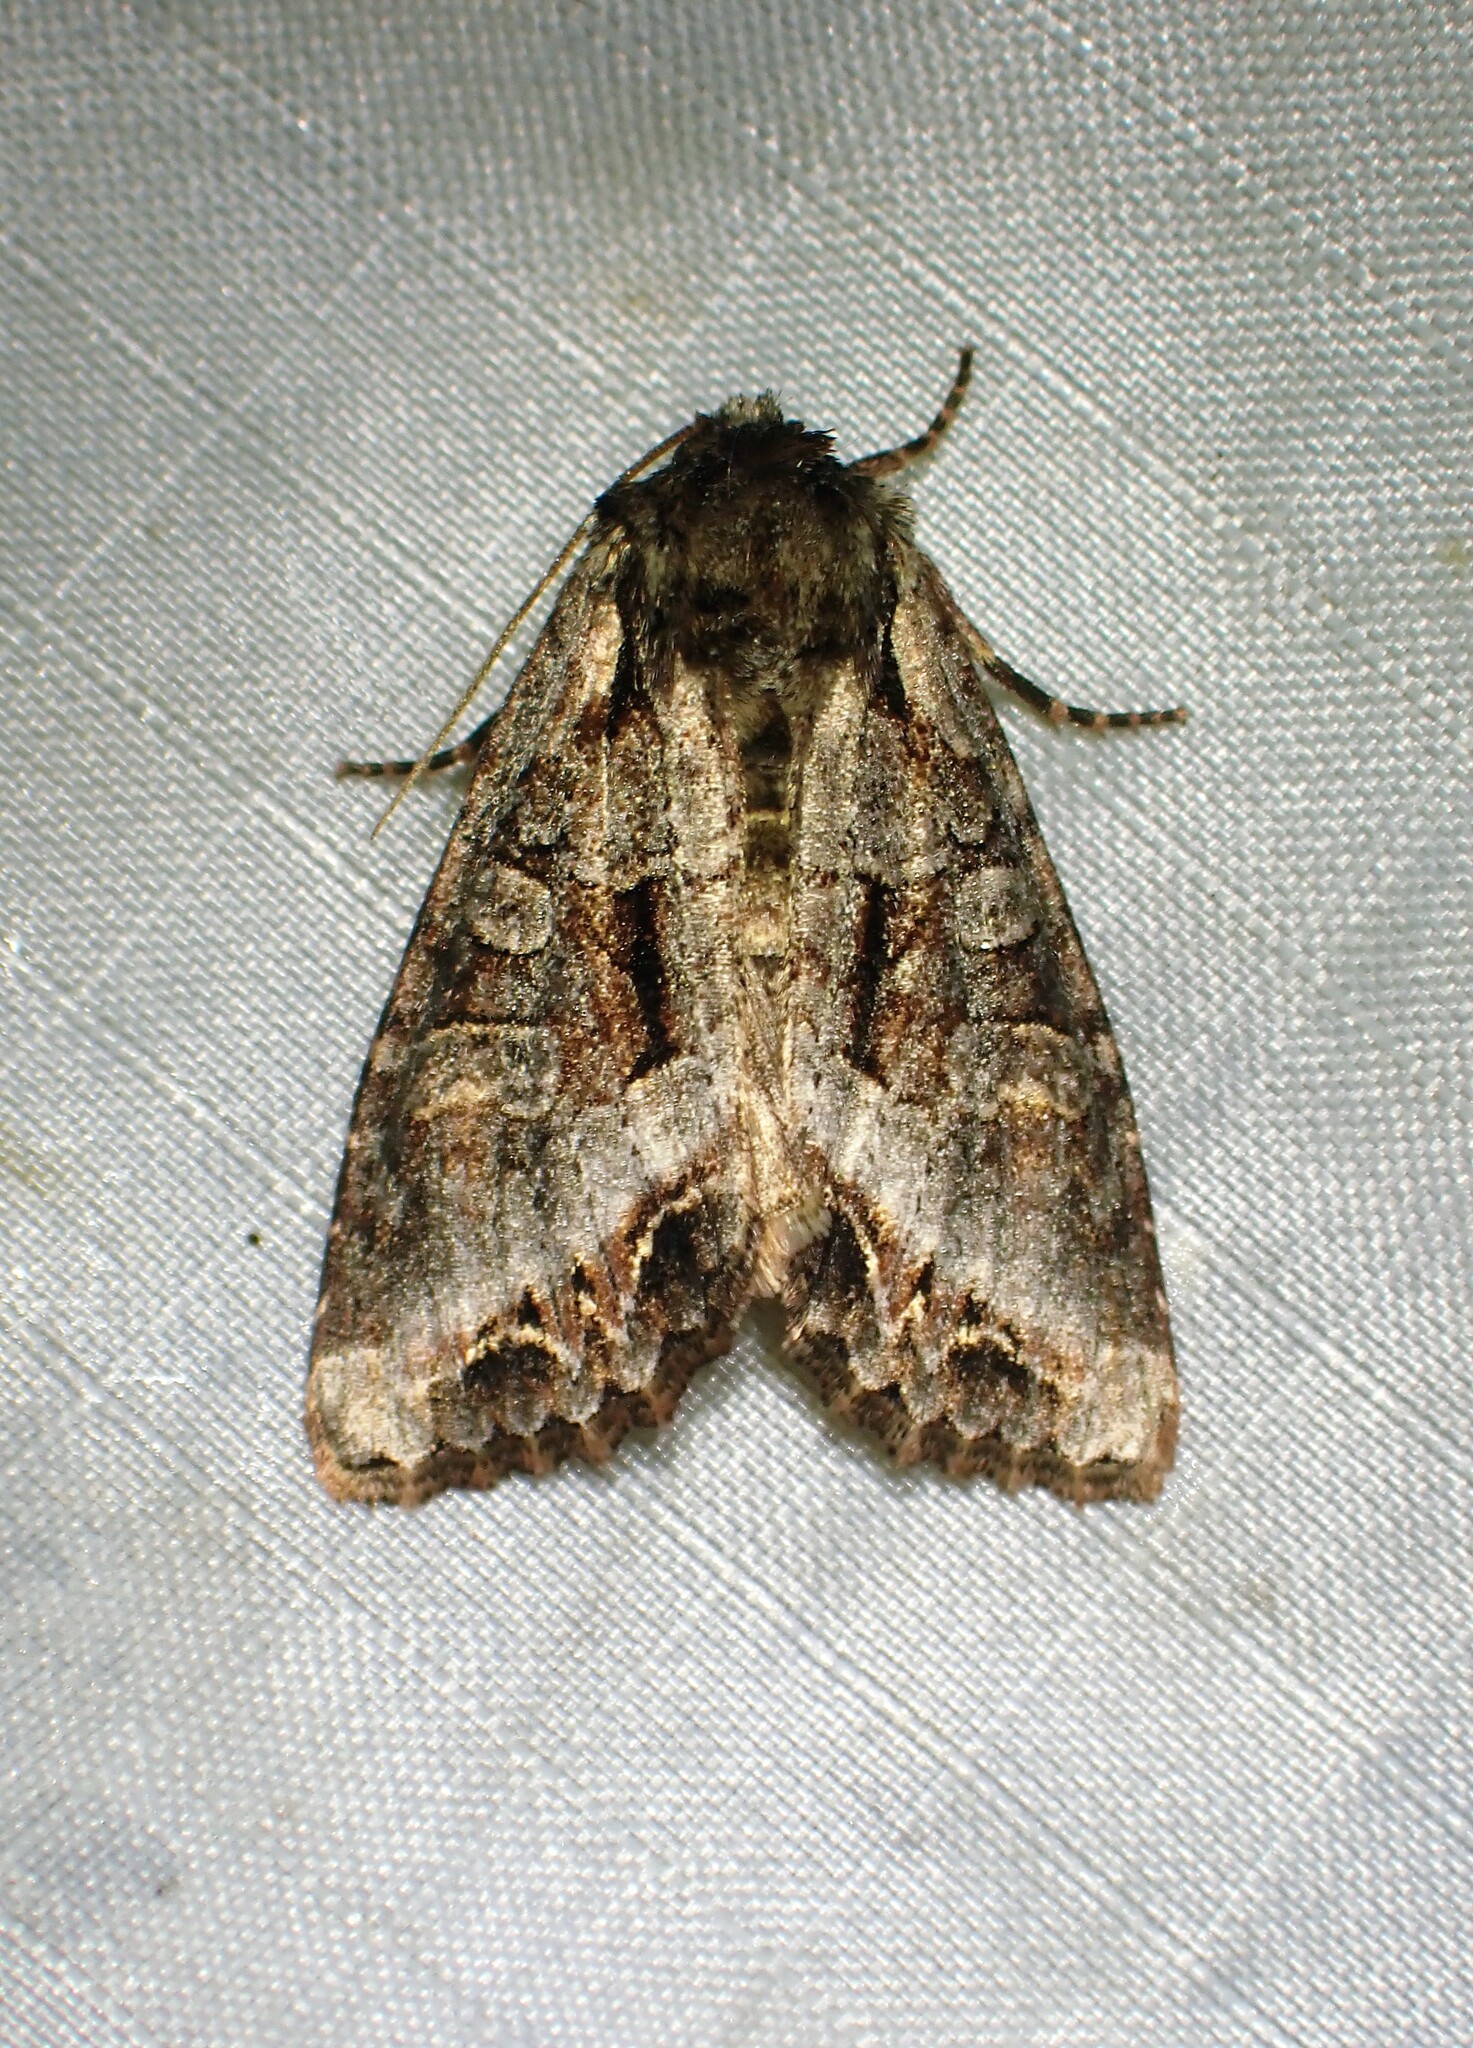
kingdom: Animalia
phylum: Arthropoda
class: Insecta
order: Lepidoptera
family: Noctuidae
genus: Lacanobia
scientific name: Lacanobia grandis
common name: Grand arches moth
